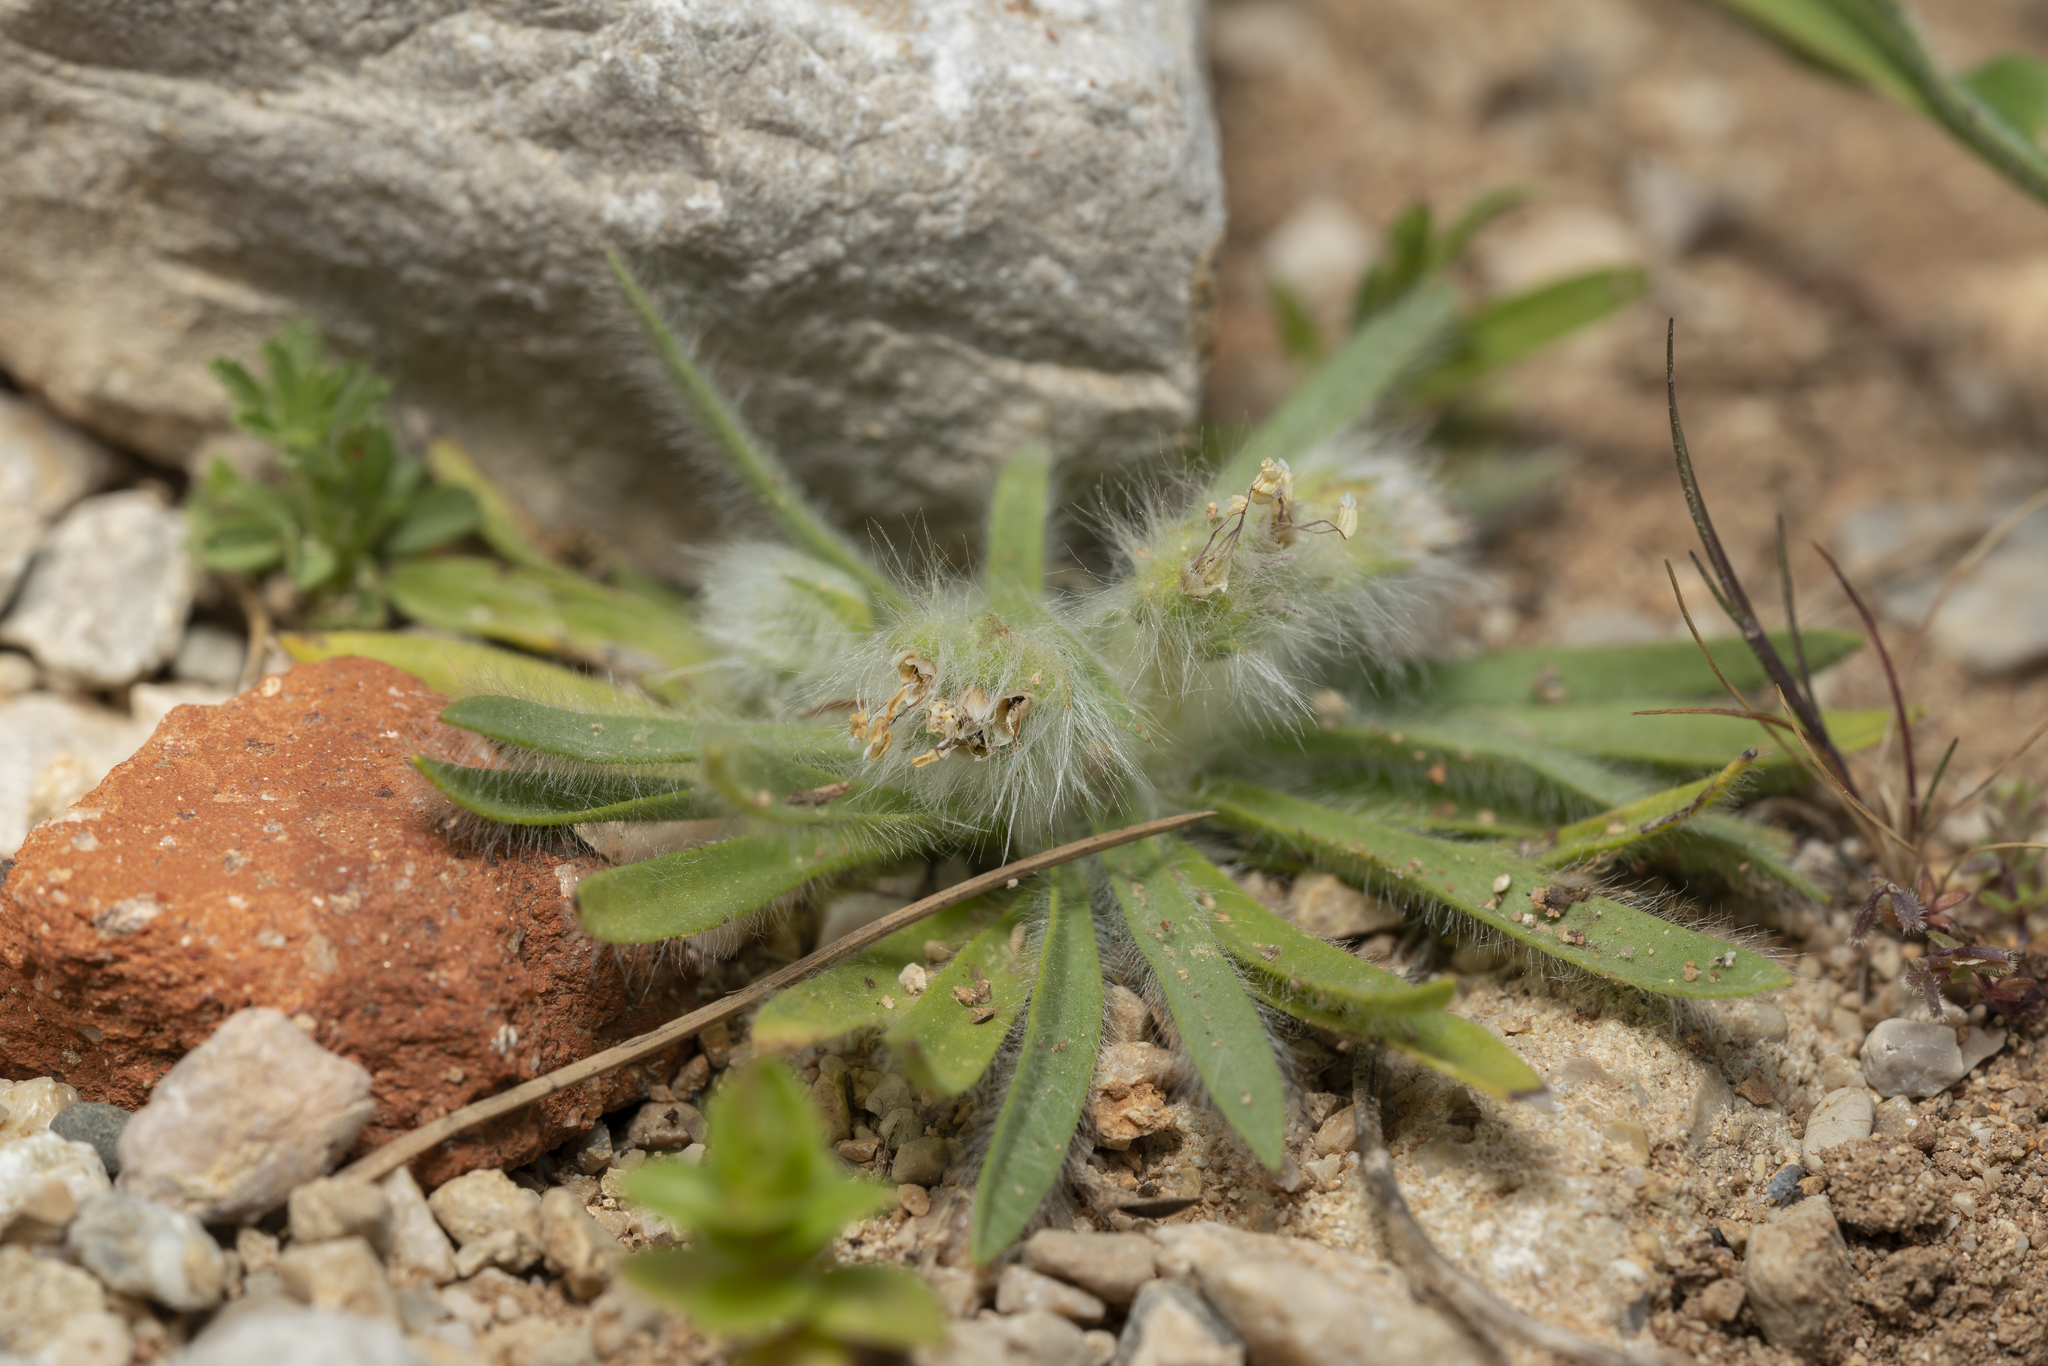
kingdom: Plantae
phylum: Tracheophyta
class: Magnoliopsida
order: Lamiales
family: Plantaginaceae
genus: Plantago
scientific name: Plantago cretica
